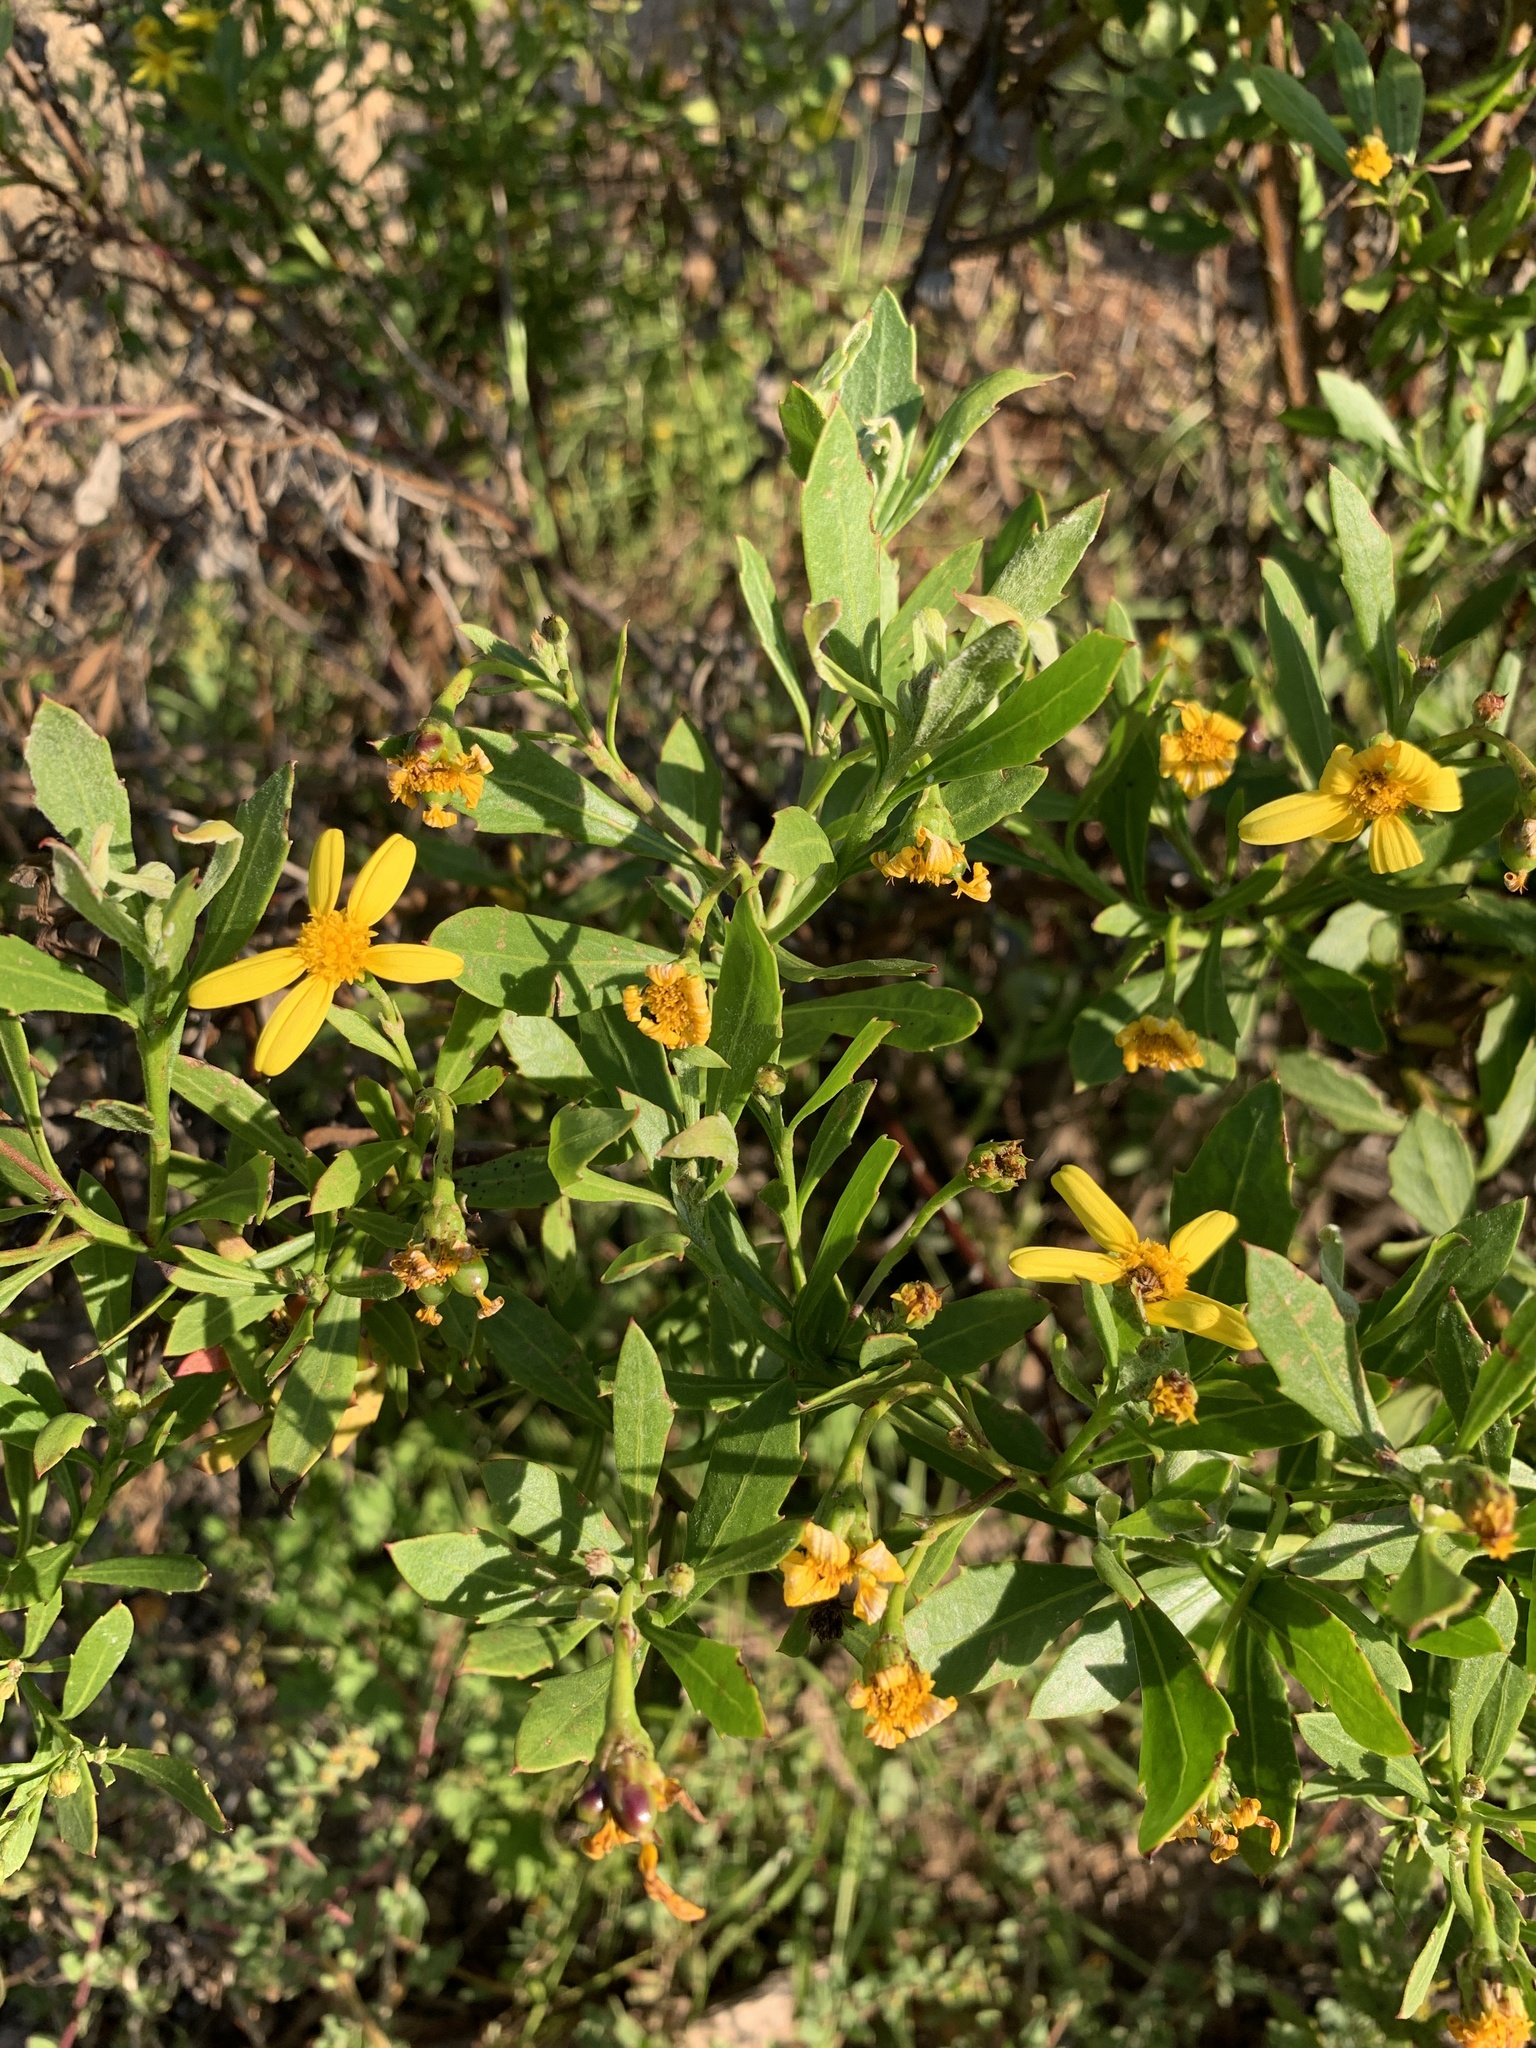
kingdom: Plantae
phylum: Tracheophyta
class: Magnoliopsida
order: Asterales
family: Asteraceae
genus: Osteospermum
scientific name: Osteospermum moniliferum
